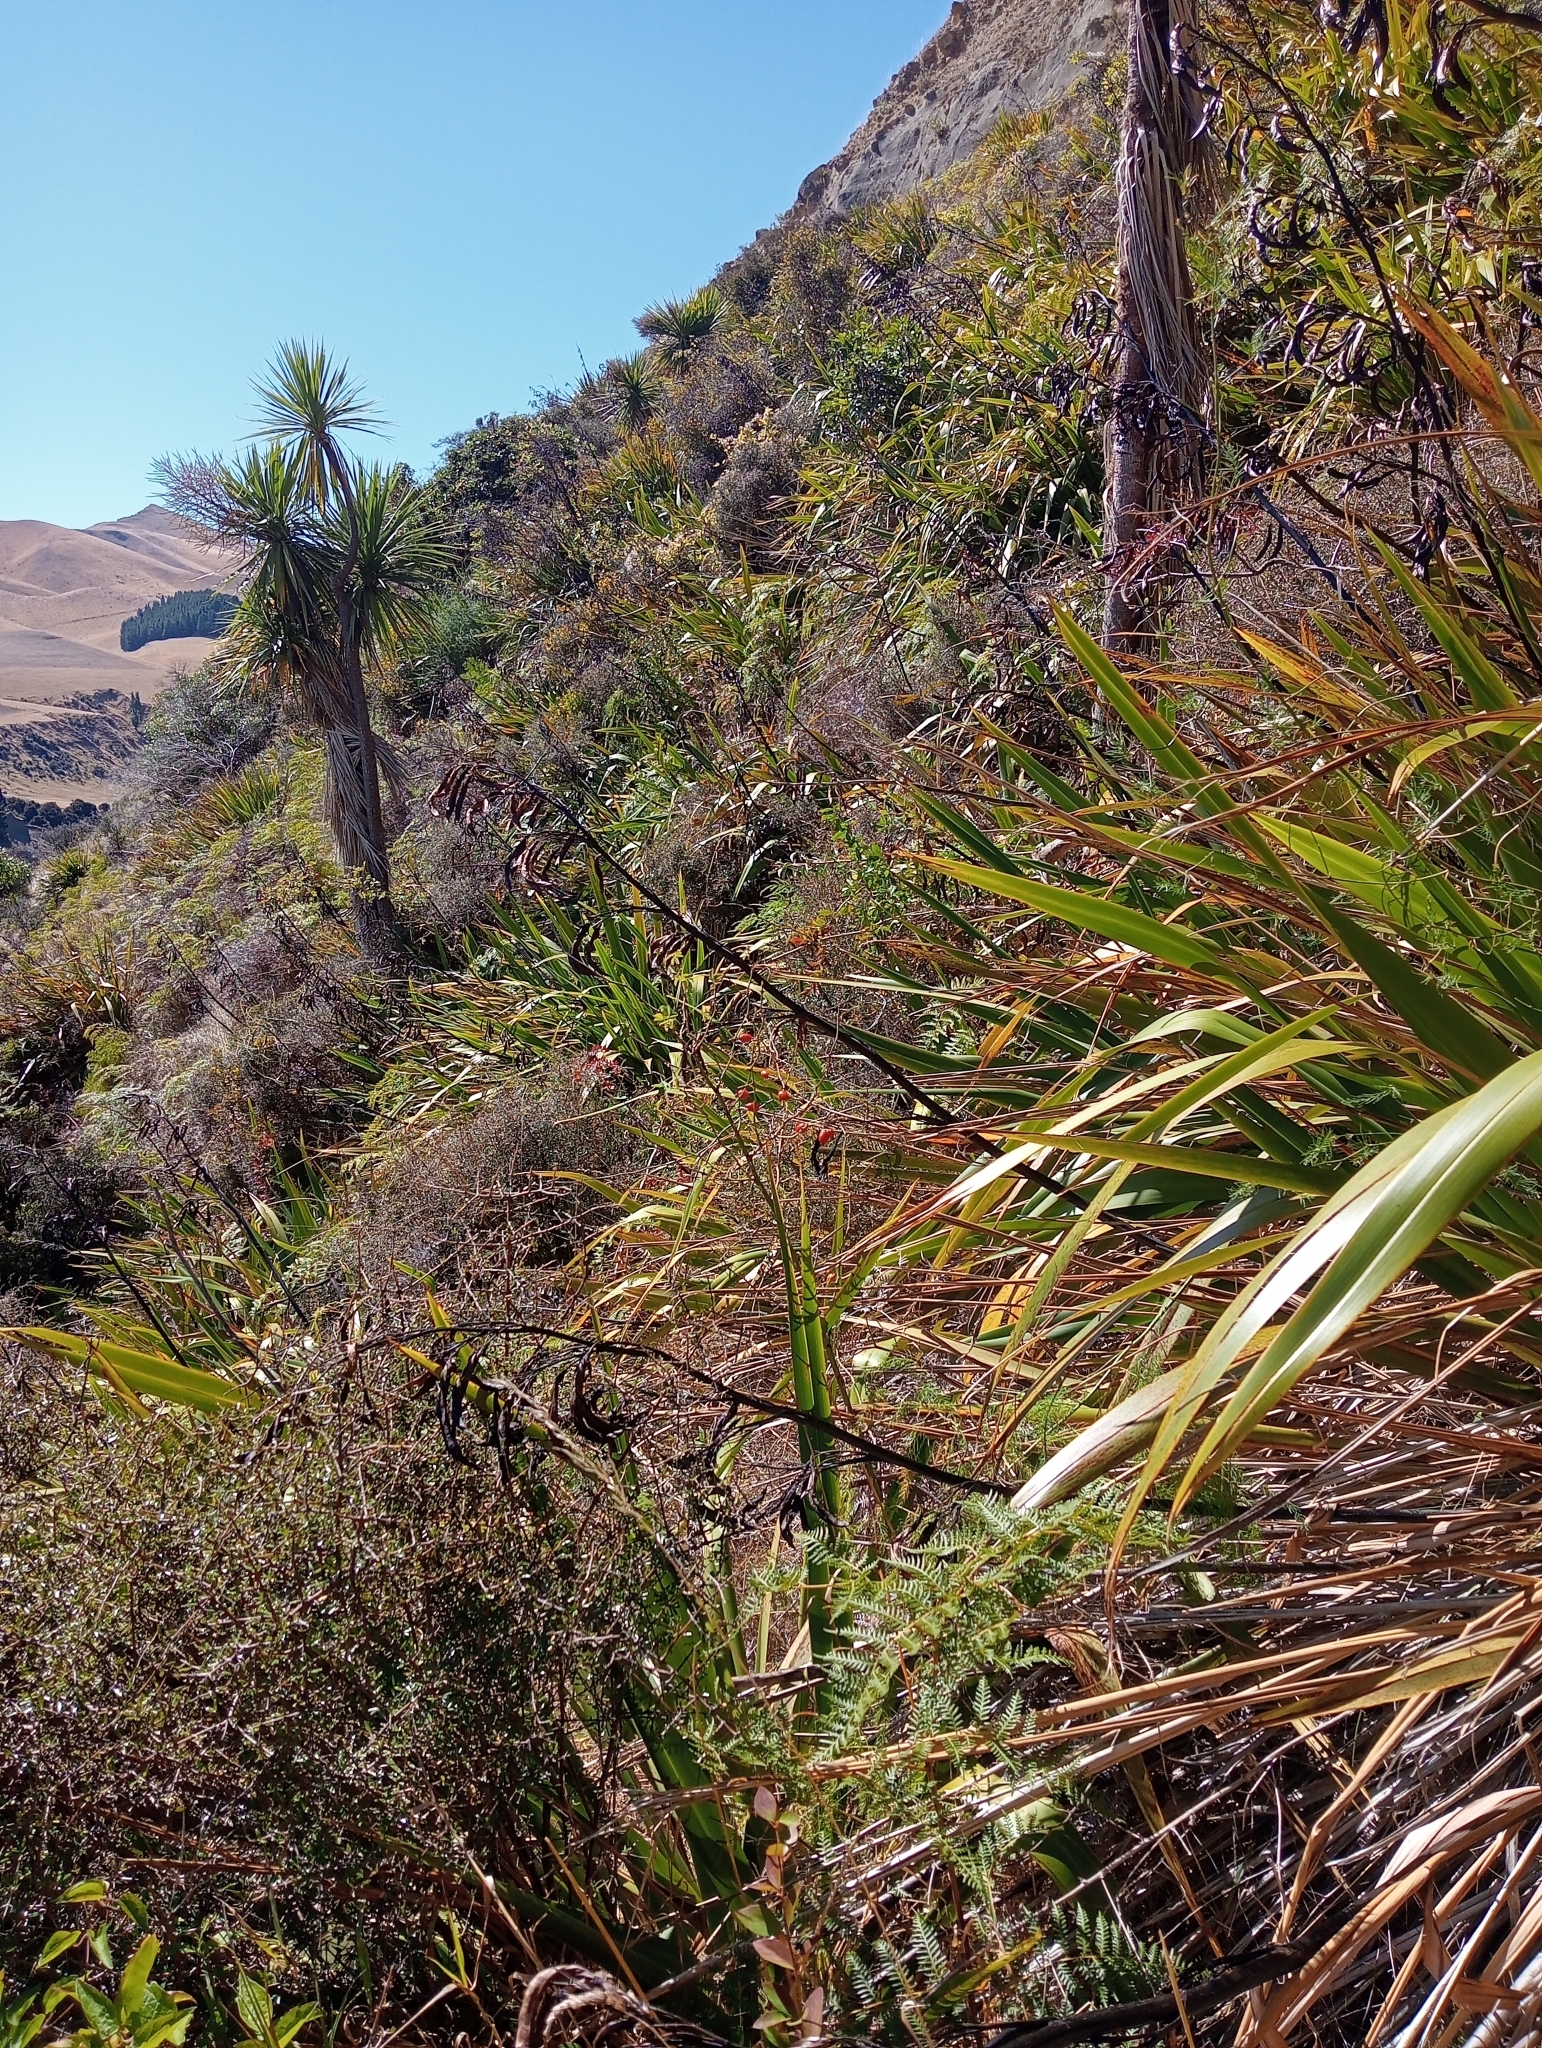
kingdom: Plantae
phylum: Tracheophyta
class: Liliopsida
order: Asparagales
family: Asphodelaceae
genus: Phormium
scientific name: Phormium colensoi
